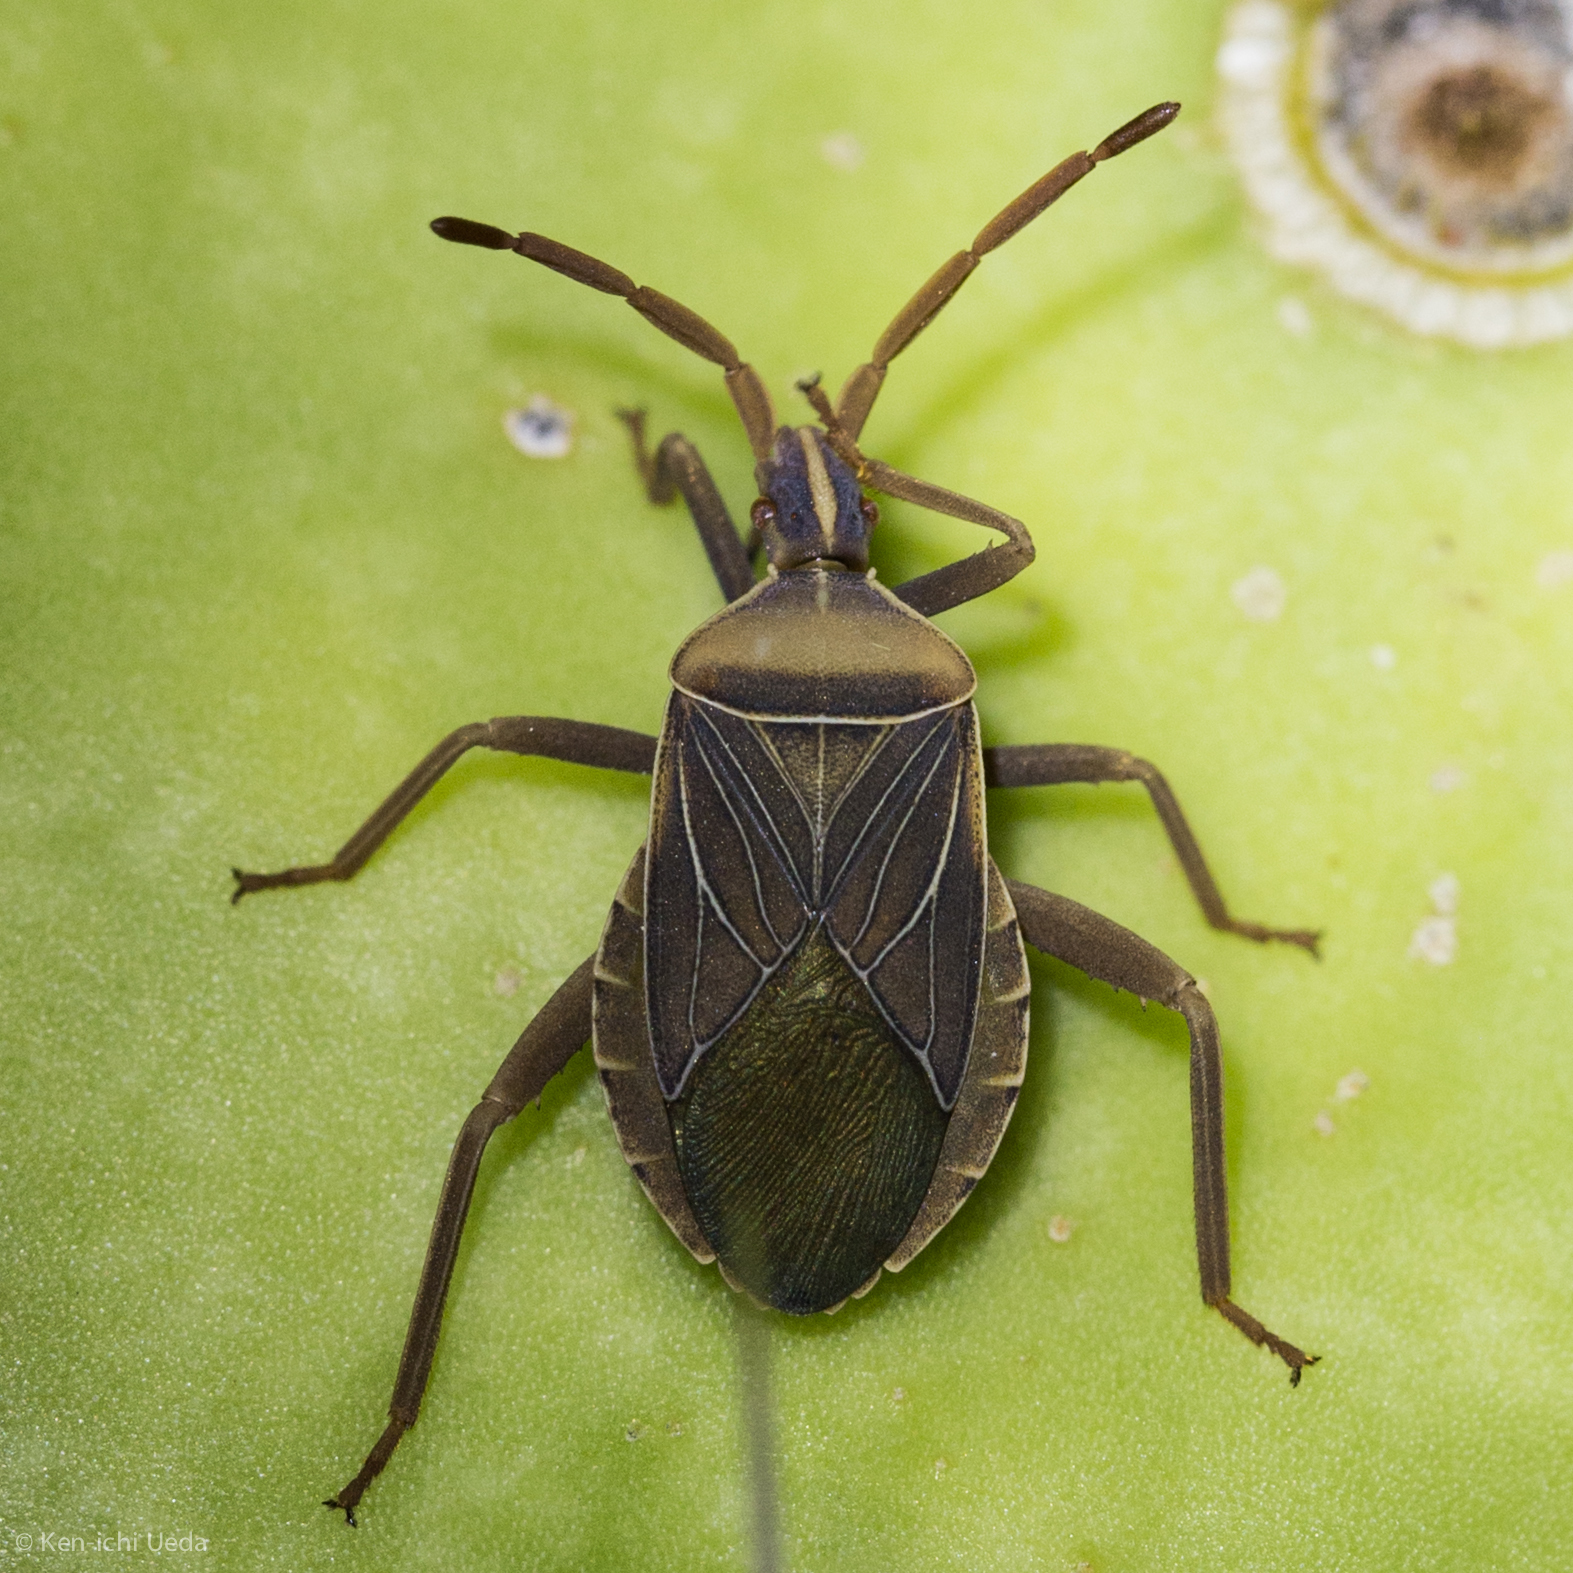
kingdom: Animalia
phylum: Arthropoda
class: Insecta
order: Hemiptera
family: Coreidae
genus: Chelinidea
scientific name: Chelinidea vittiger
